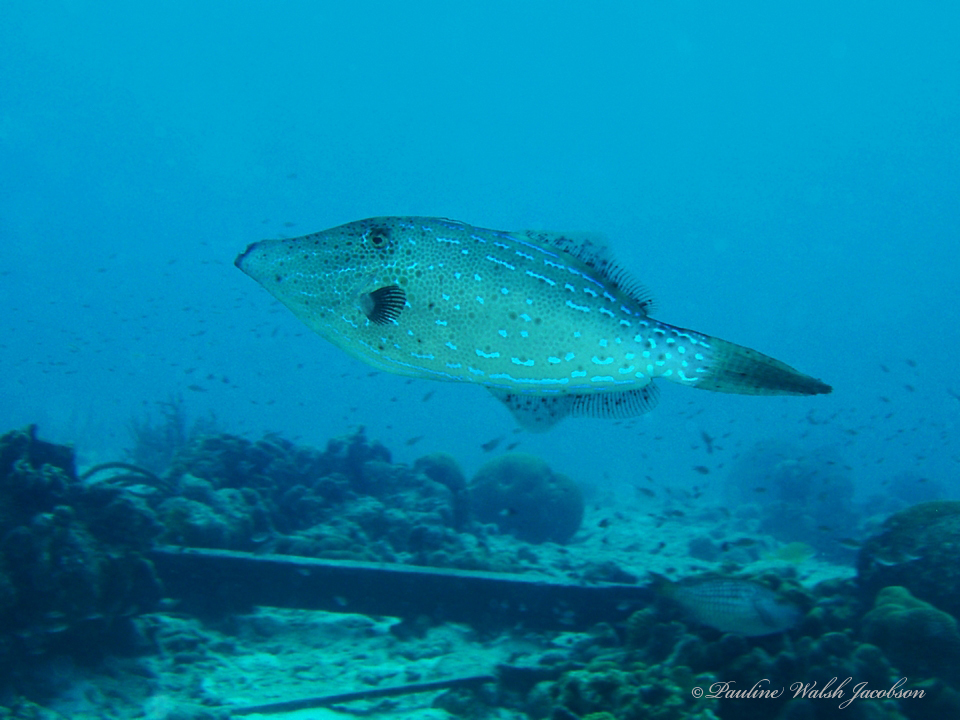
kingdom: Animalia
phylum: Chordata
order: Tetraodontiformes
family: Monacanthidae
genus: Aluterus
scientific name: Aluterus scriptus
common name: Scribbled leatherjacket filefish
